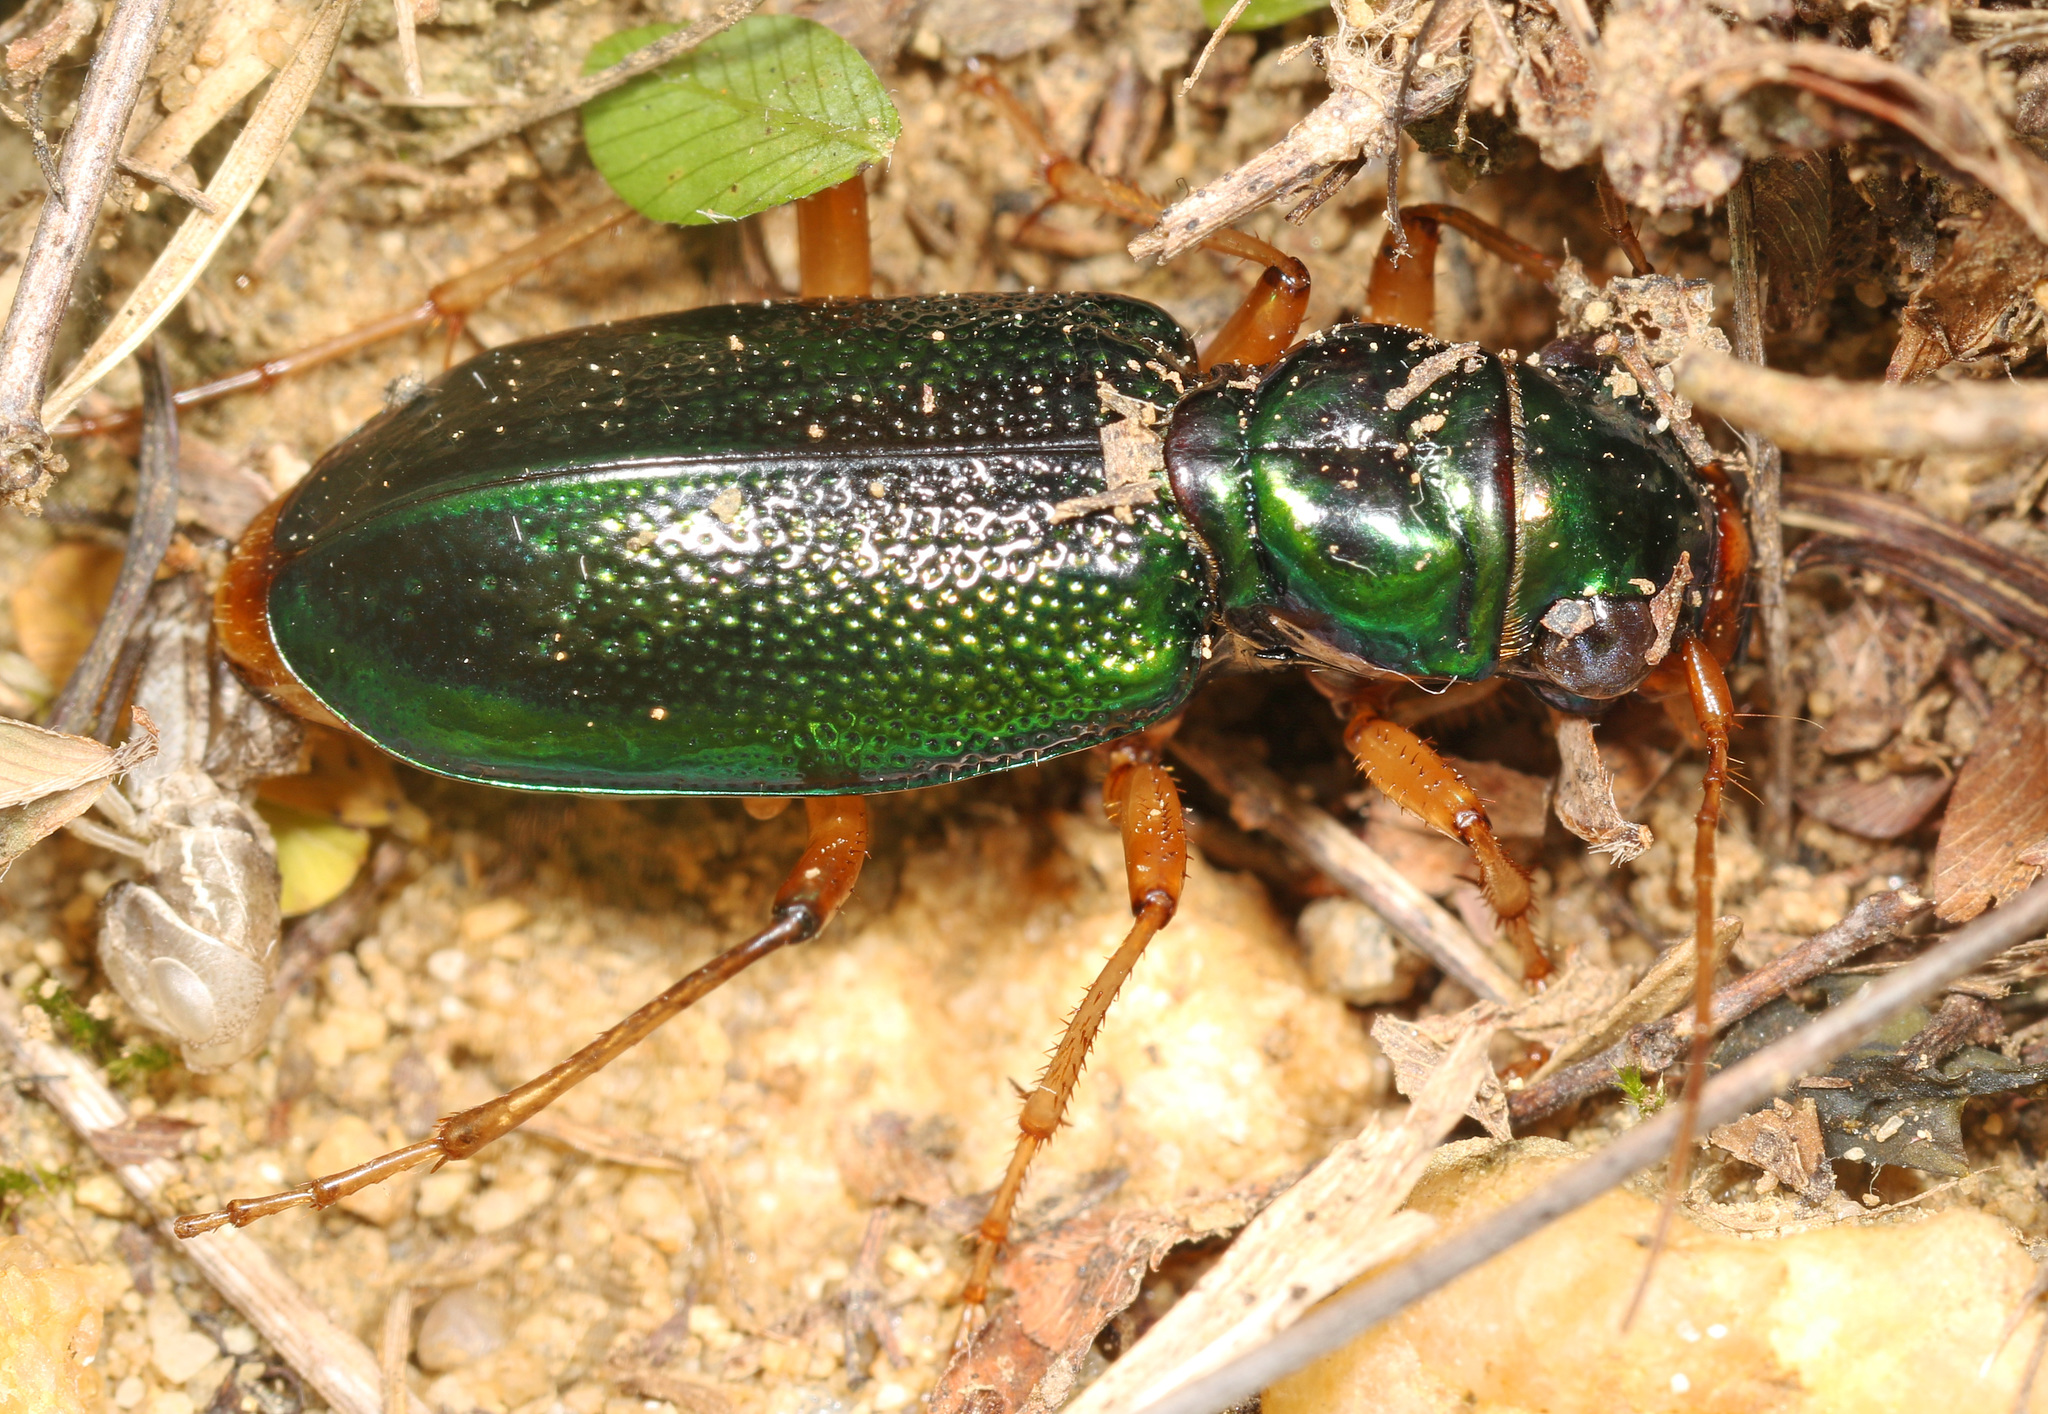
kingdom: Animalia
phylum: Arthropoda
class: Insecta
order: Coleoptera
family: Carabidae
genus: Tetracha
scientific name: Tetracha virginica
